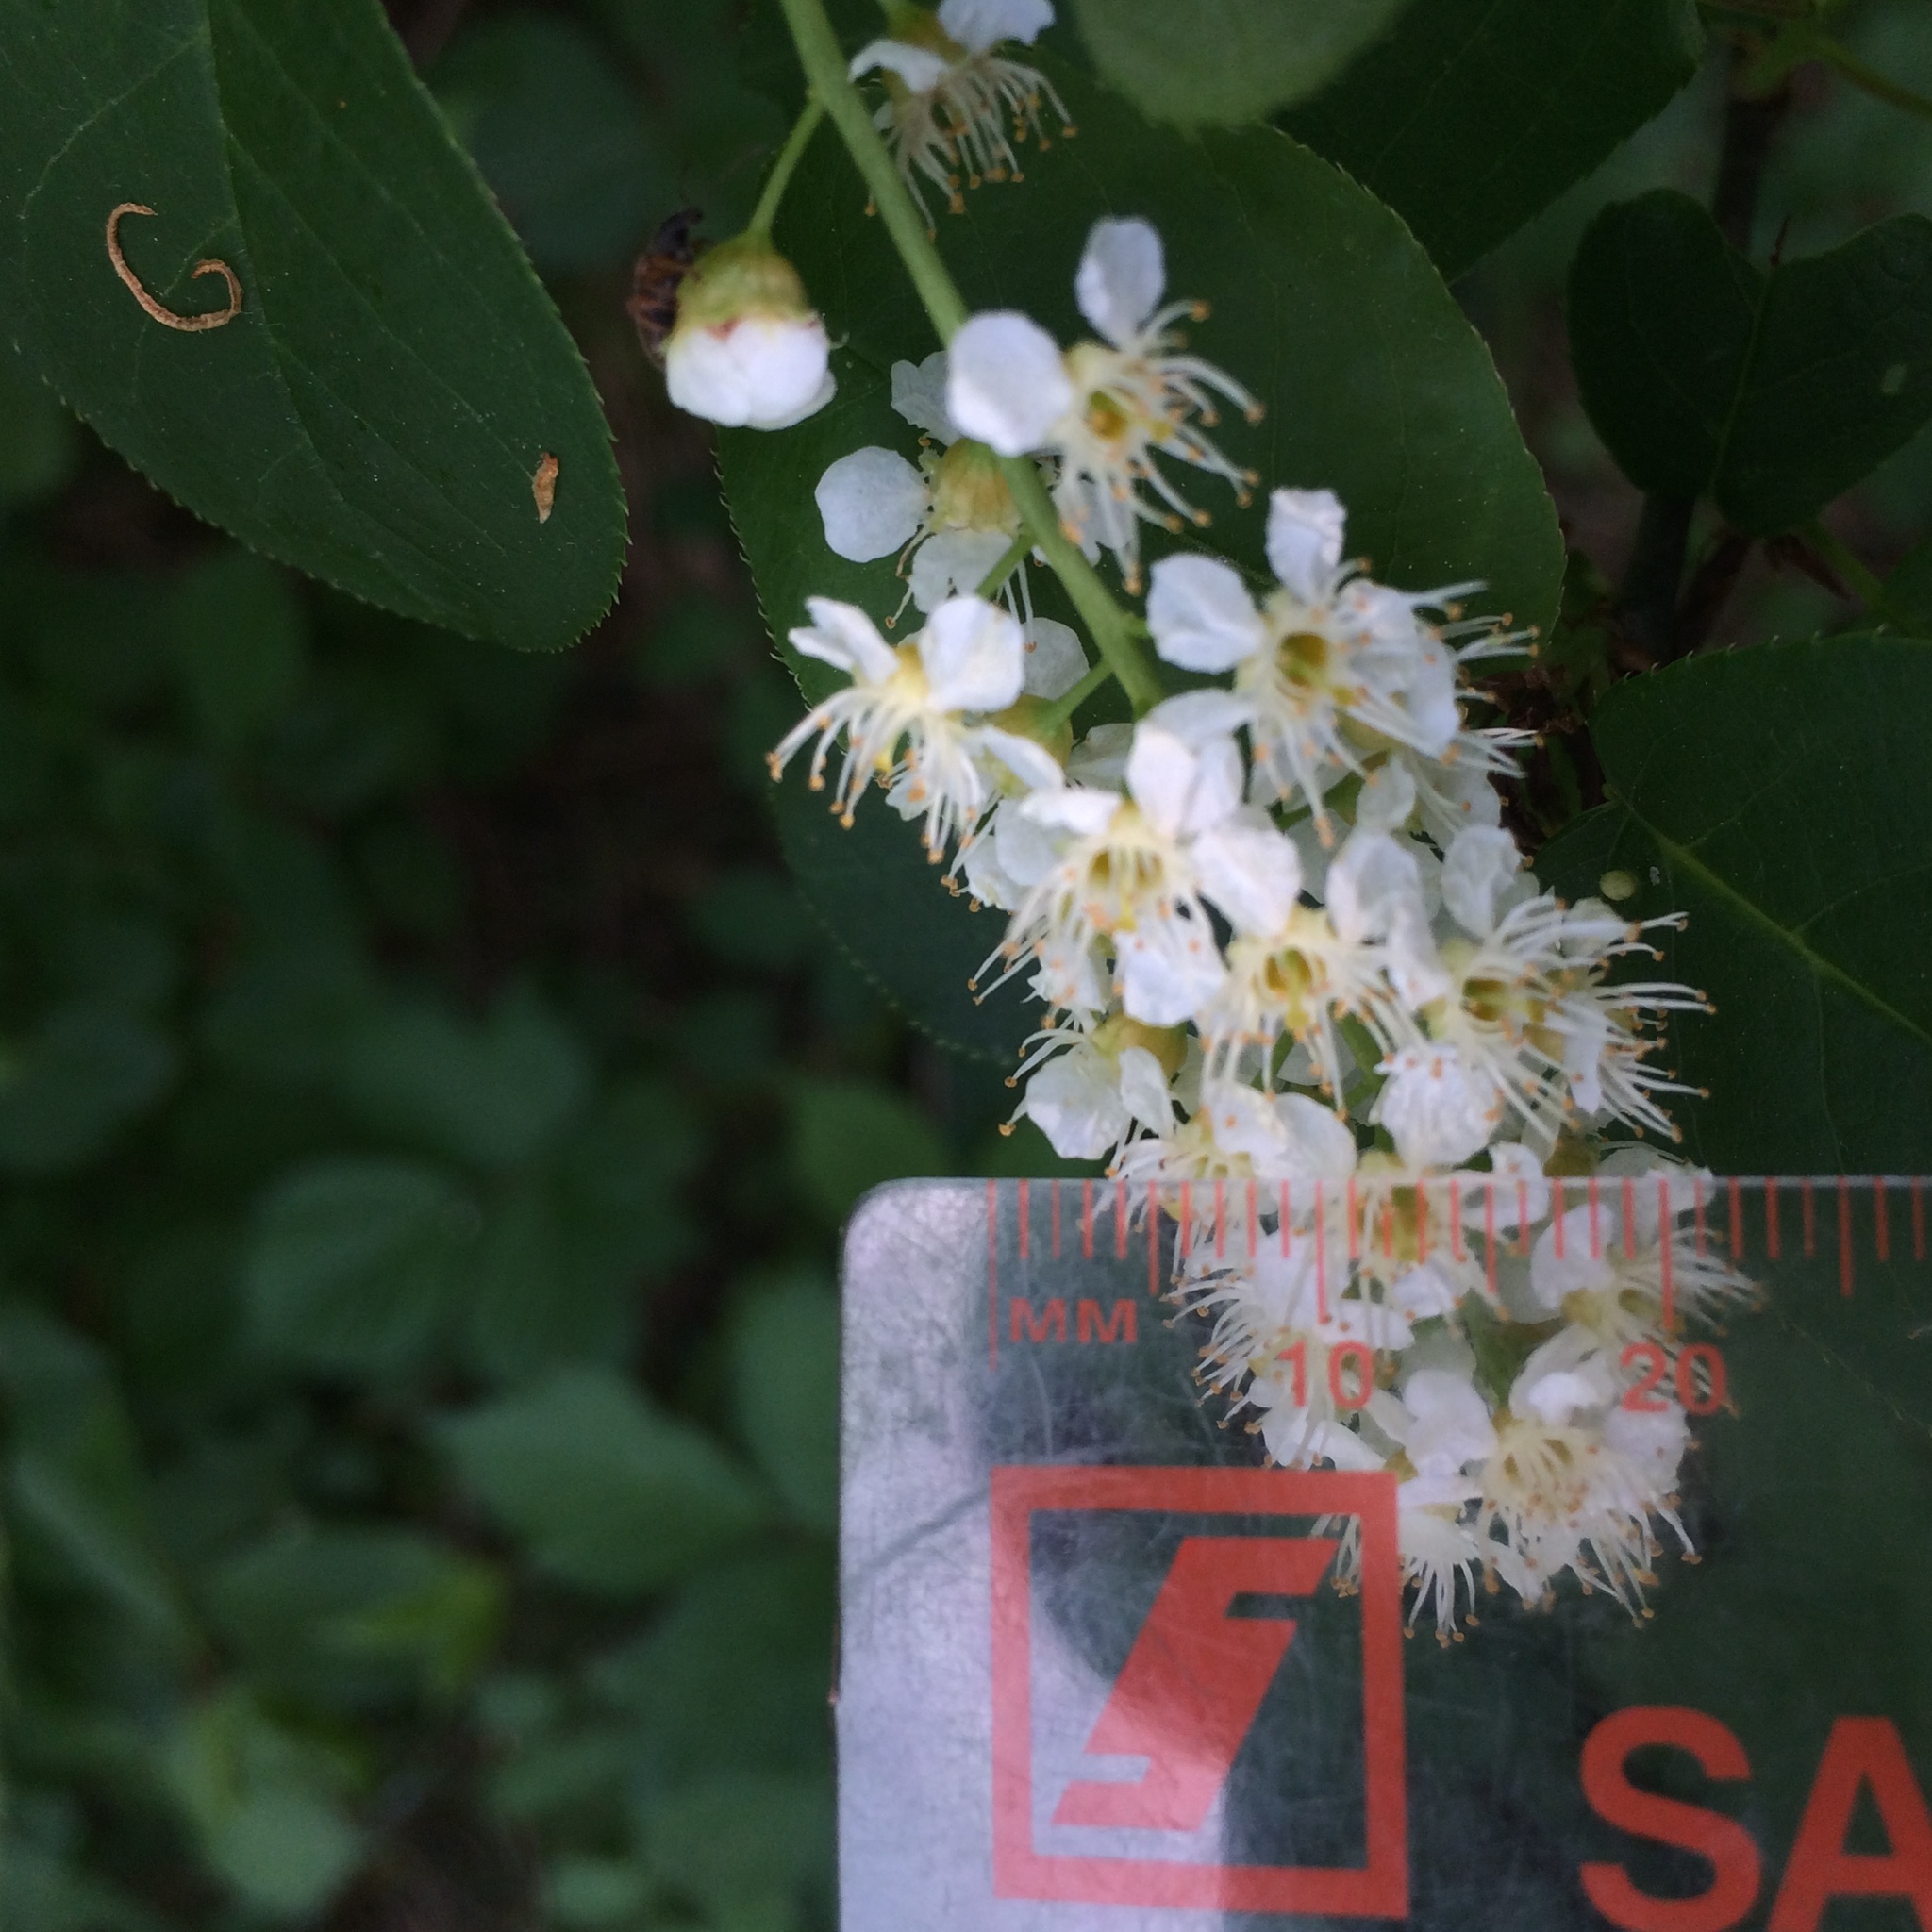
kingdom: Plantae
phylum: Tracheophyta
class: Magnoliopsida
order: Rosales
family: Rosaceae
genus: Prunus
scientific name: Prunus virginiana
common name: Chokecherry
